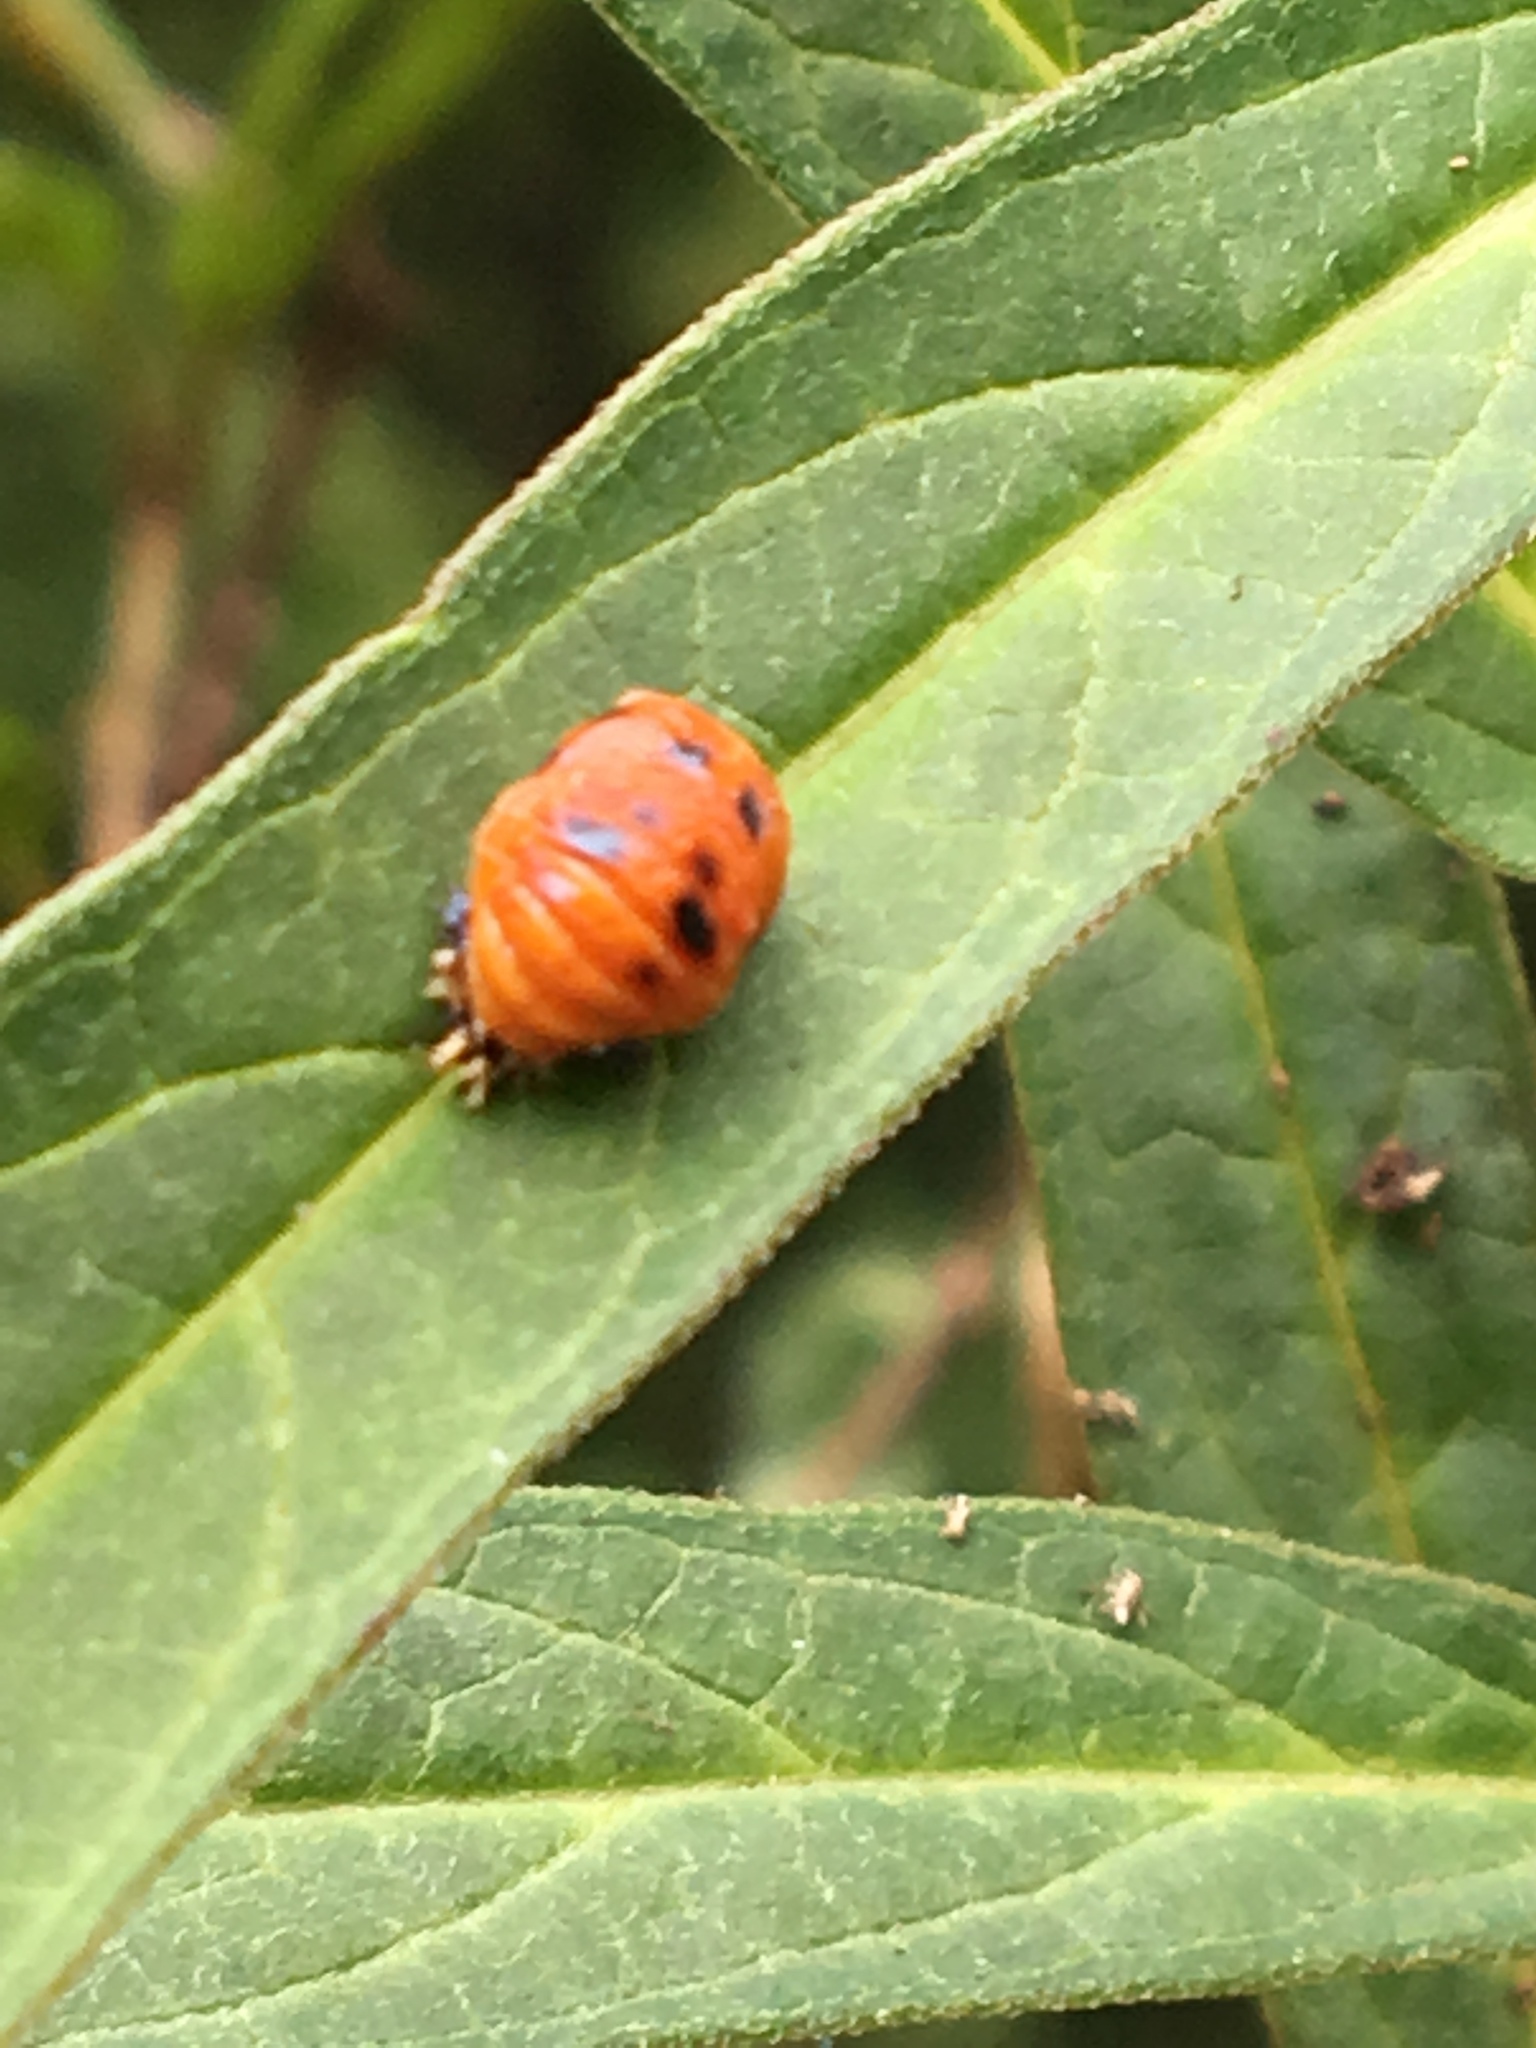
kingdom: Animalia
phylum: Arthropoda
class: Insecta
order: Coleoptera
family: Coccinellidae
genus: Harmonia
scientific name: Harmonia axyridis
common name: Harlequin ladybird
